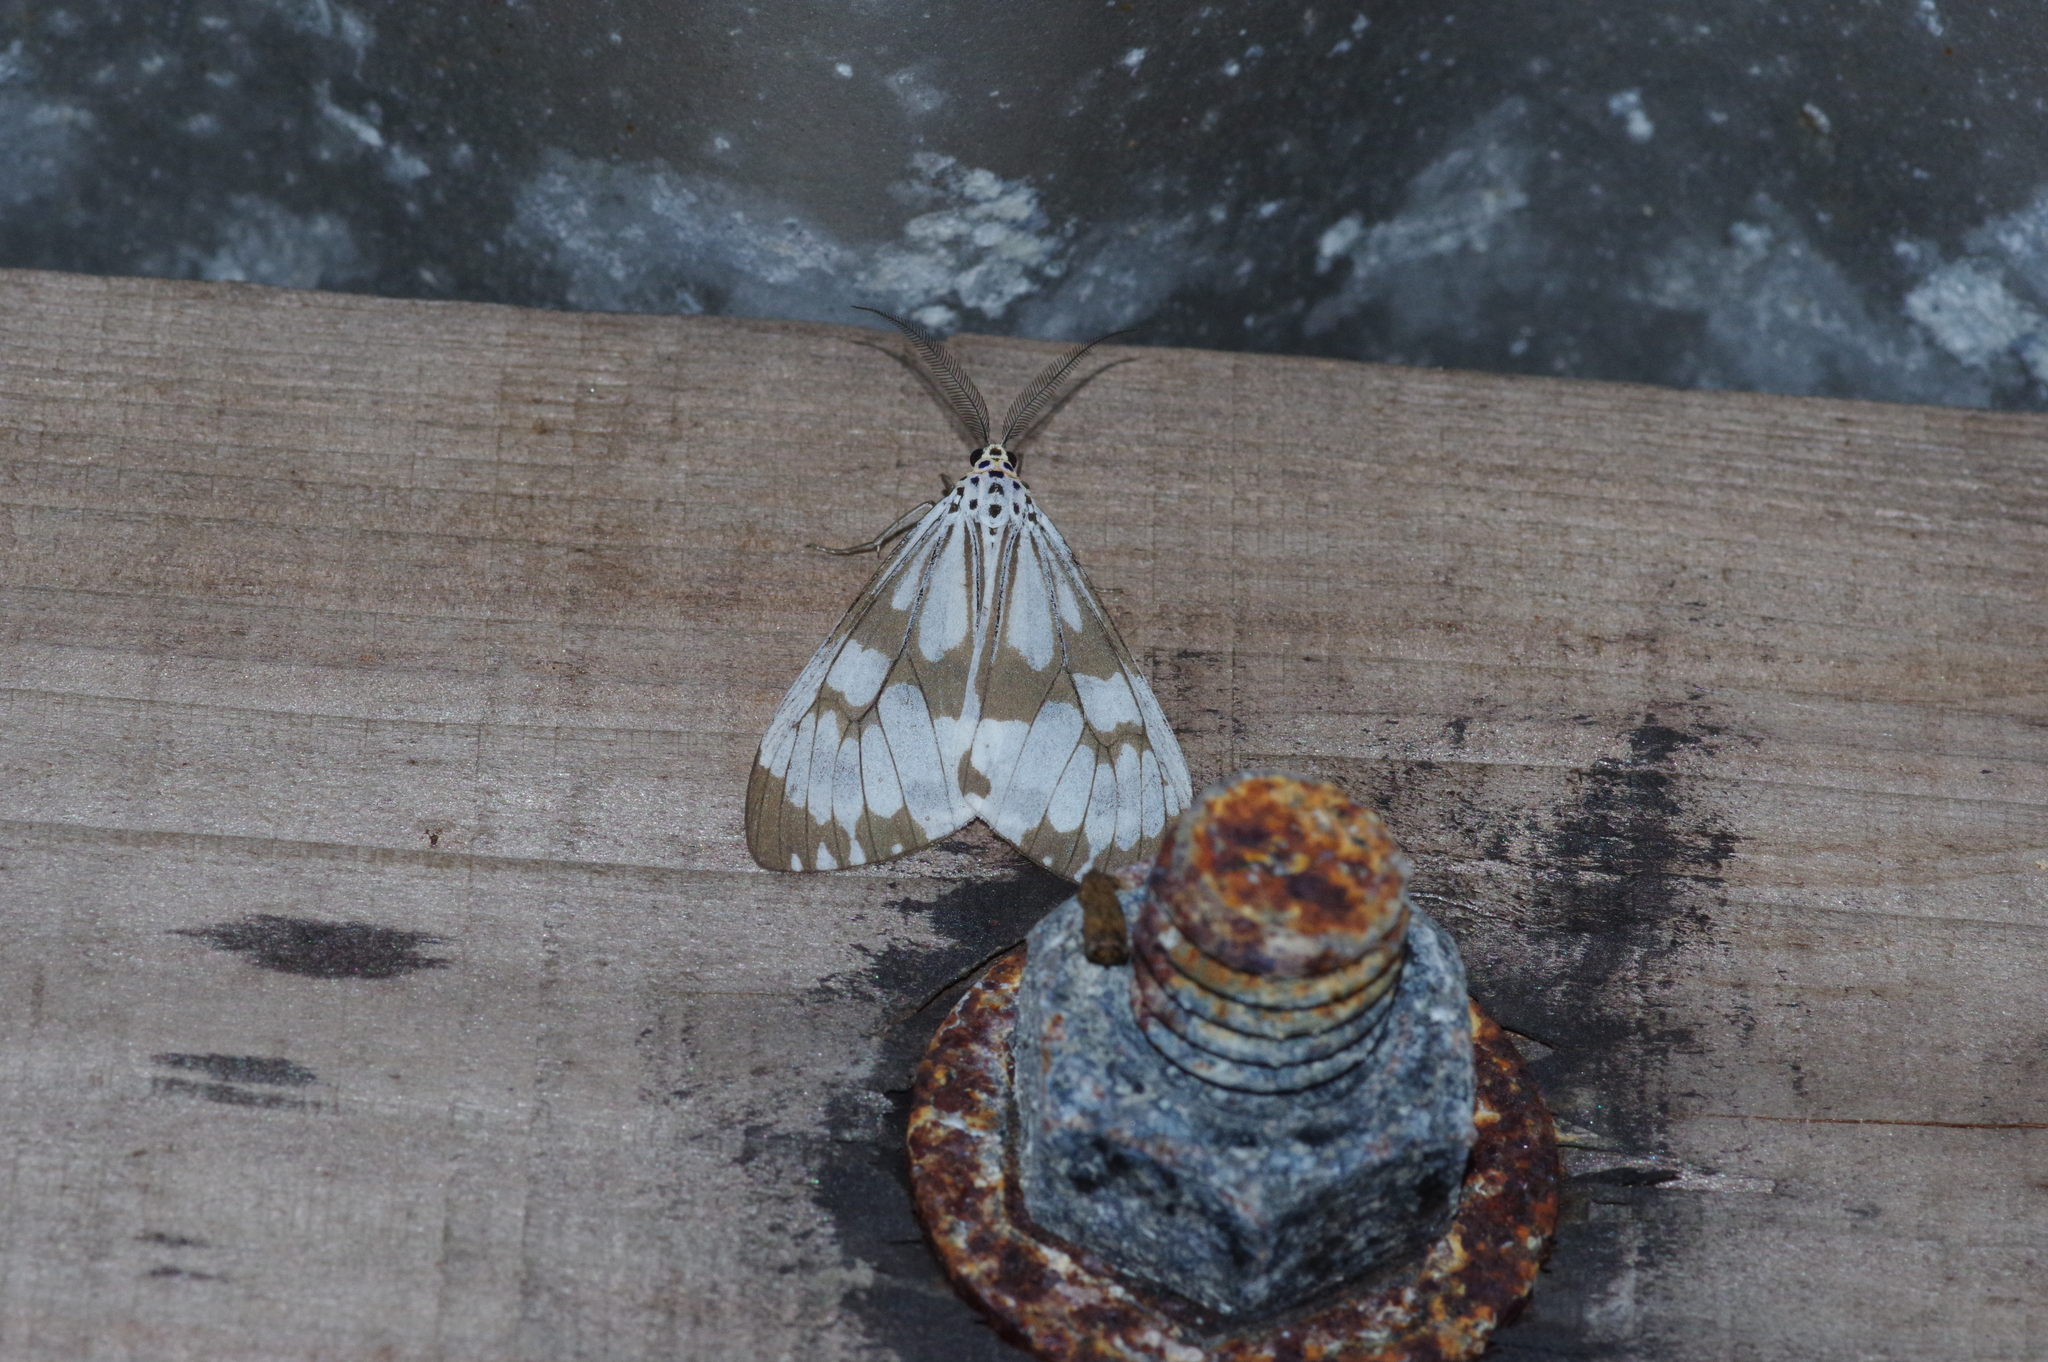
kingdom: Animalia
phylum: Arthropoda
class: Insecta
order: Lepidoptera
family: Erebidae
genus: Nyctemera
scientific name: Nyctemera adversata
